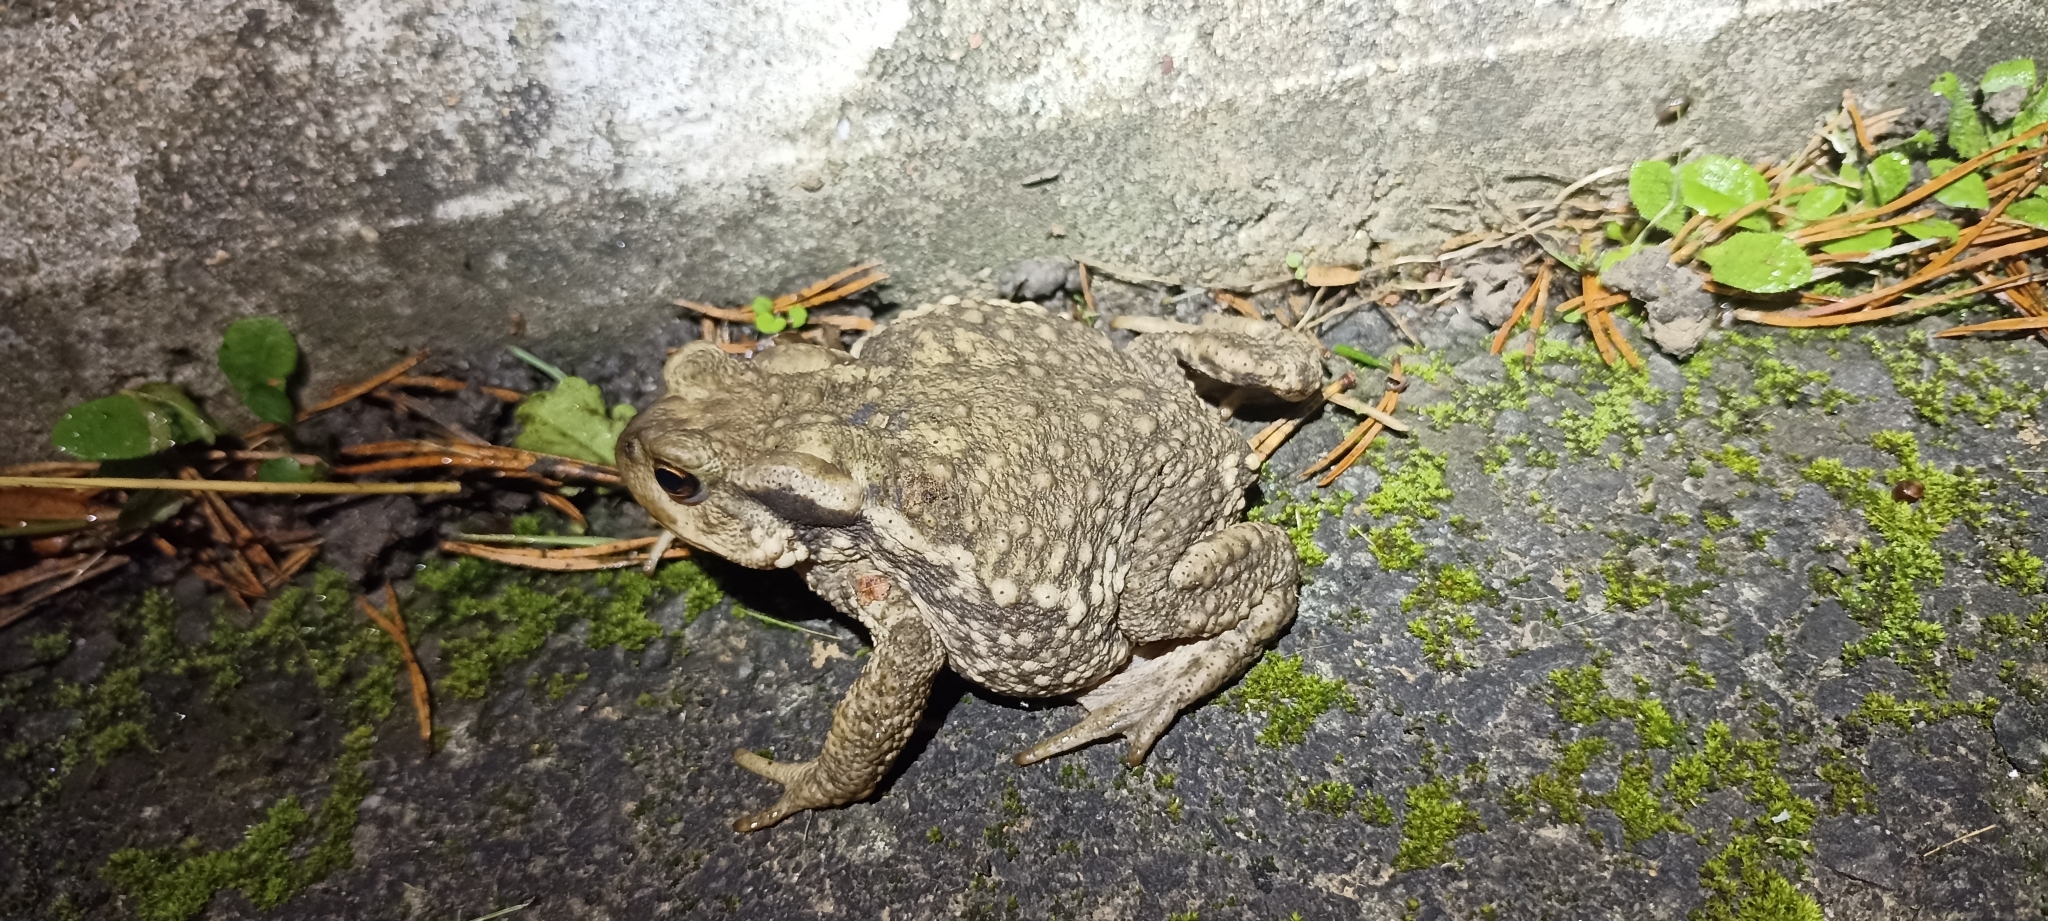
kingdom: Animalia
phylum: Chordata
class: Amphibia
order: Anura
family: Bufonidae
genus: Bufo
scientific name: Bufo spinosus
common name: Western common toad
